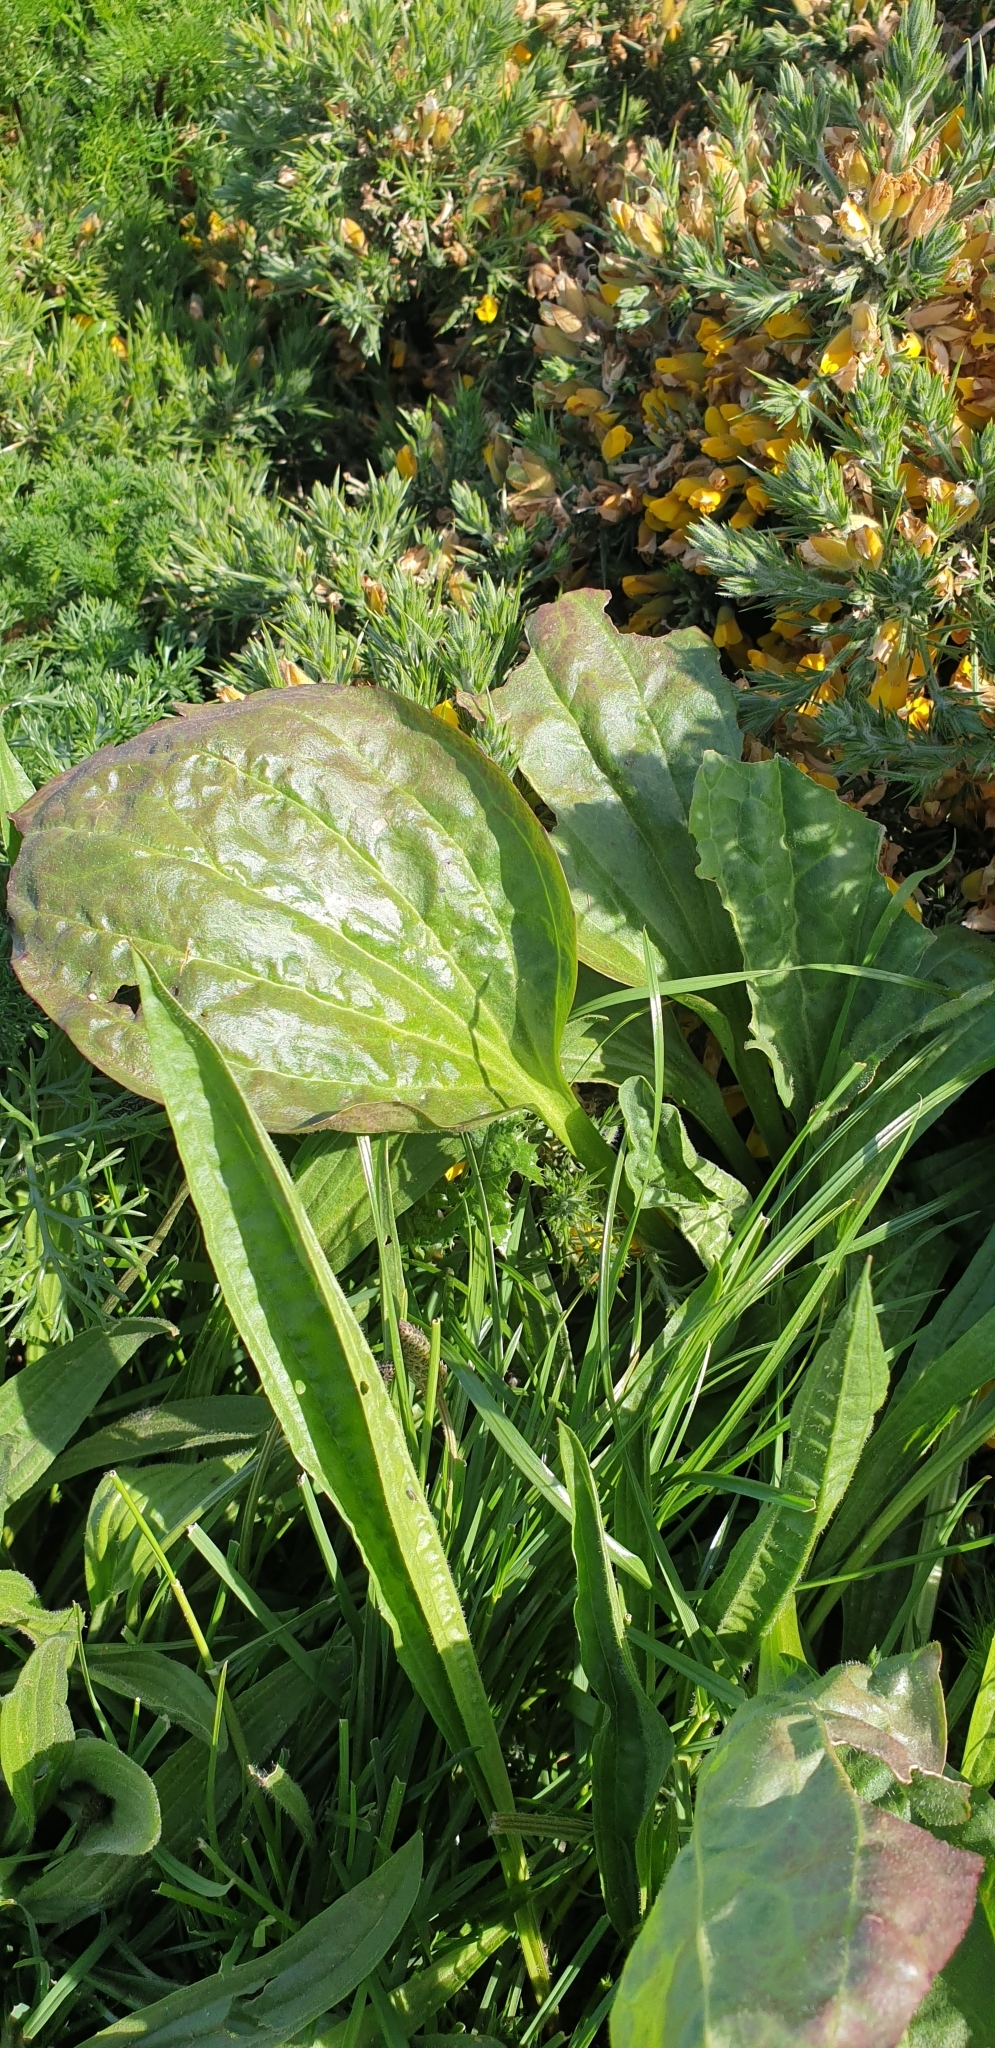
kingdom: Plantae
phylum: Tracheophyta
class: Magnoliopsida
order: Lamiales
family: Plantaginaceae
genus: Plantago
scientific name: Plantago major
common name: Common plantain
